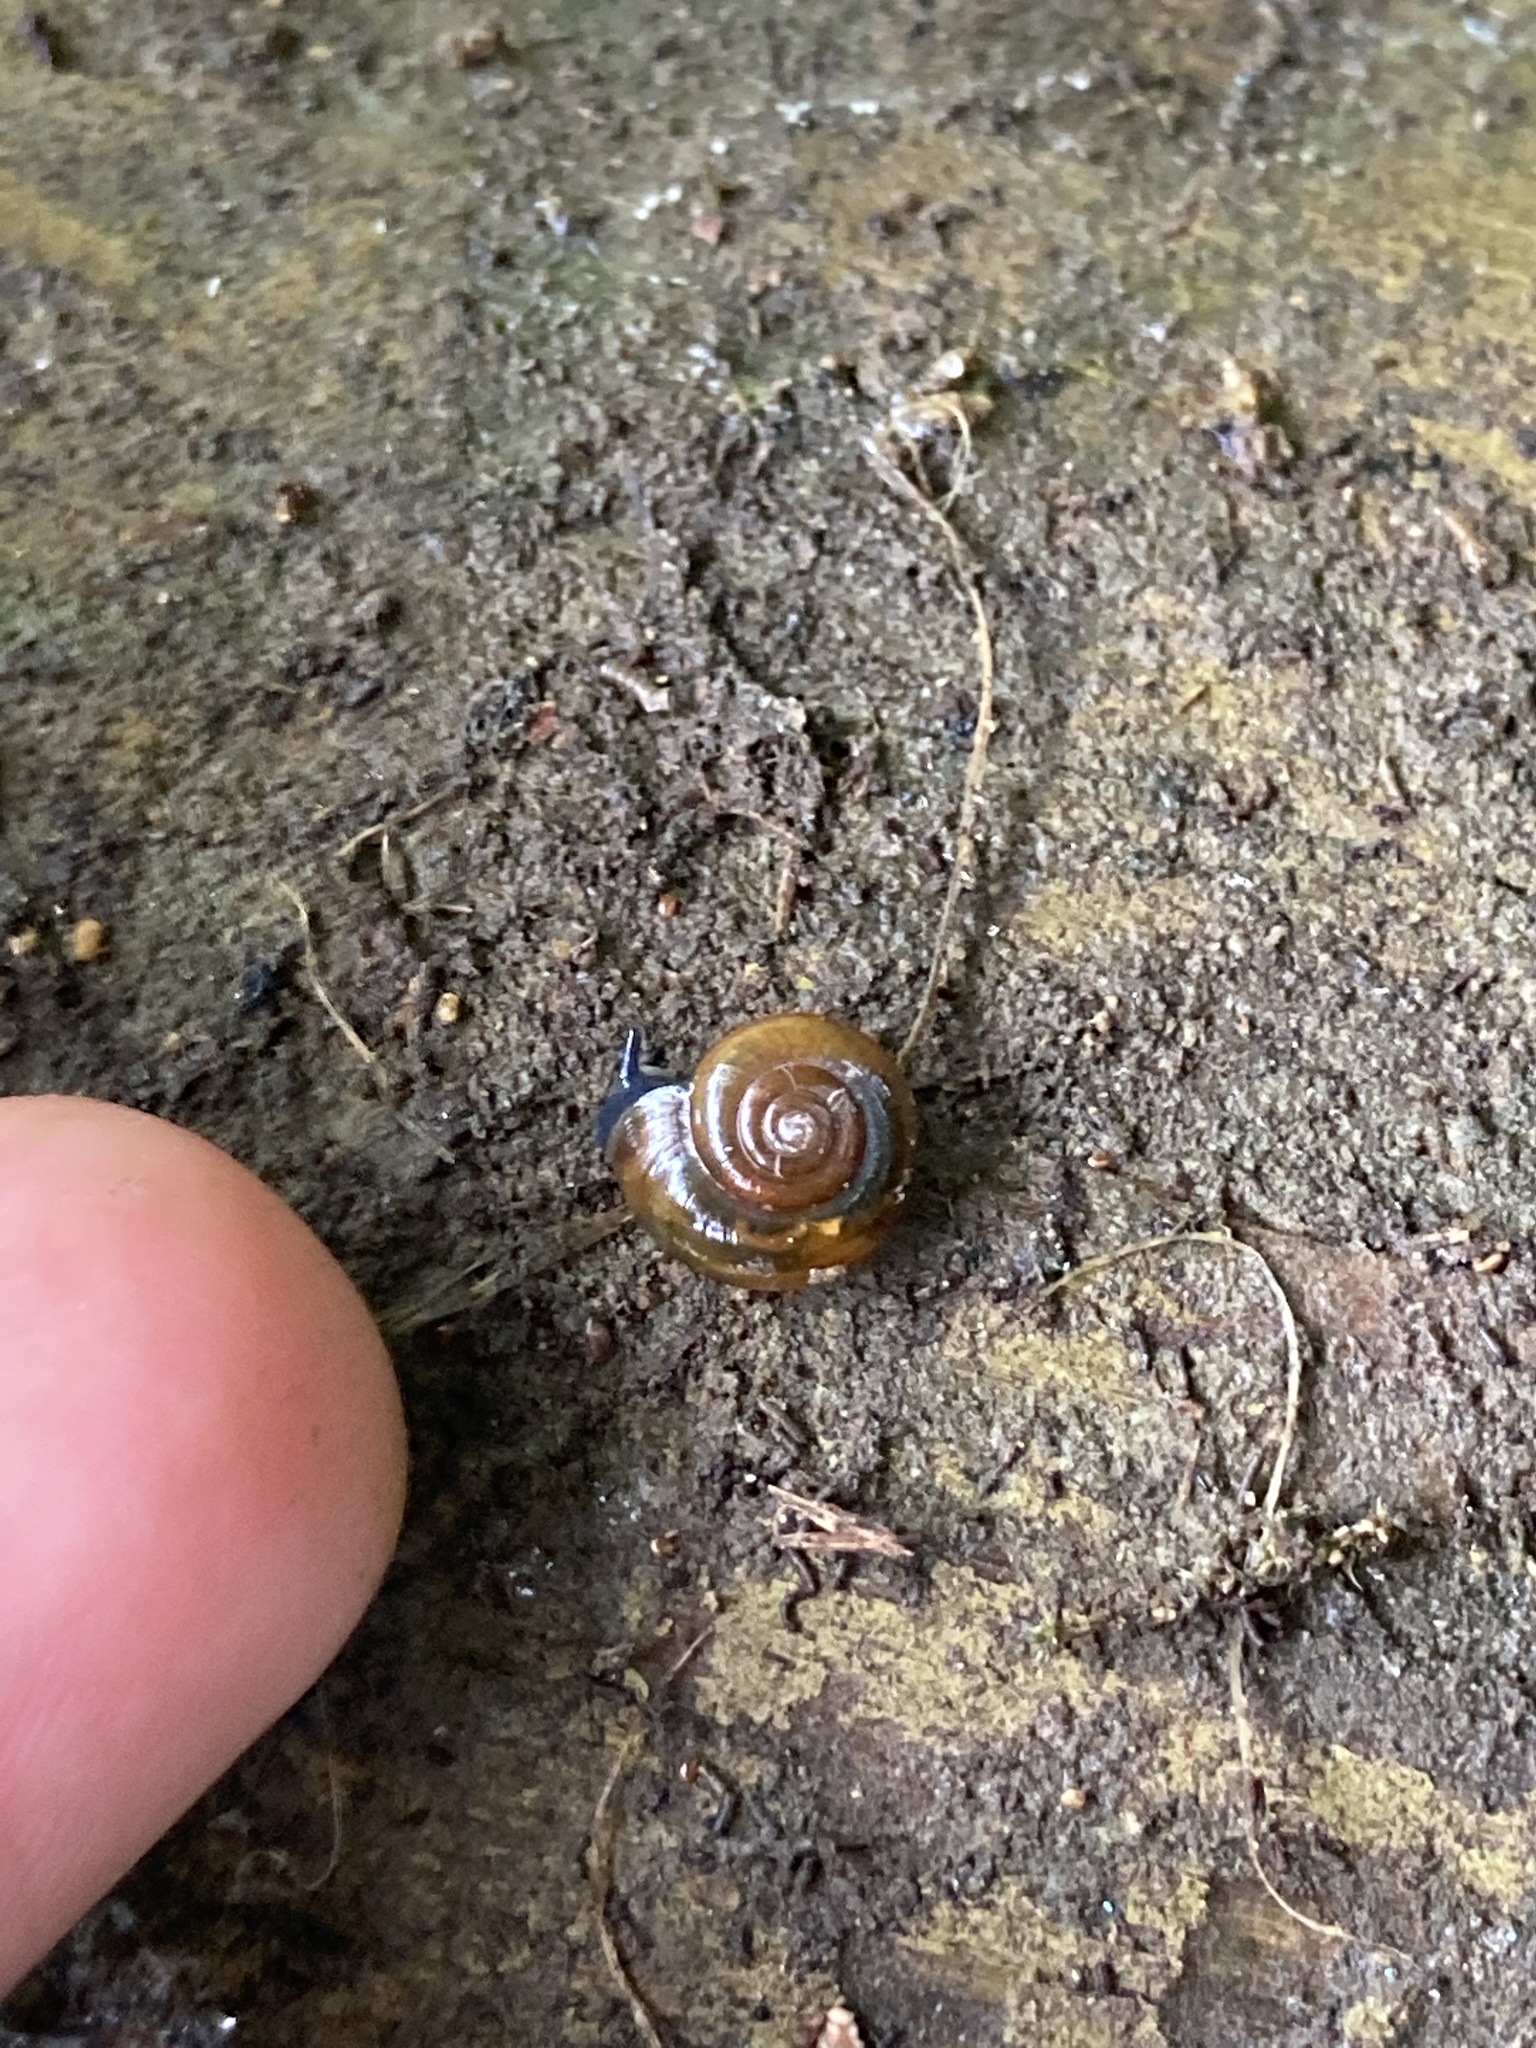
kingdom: Animalia
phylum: Mollusca
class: Gastropoda
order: Stylommatophora
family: Oxychilidae
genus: Oxychilus
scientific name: Oxychilus
